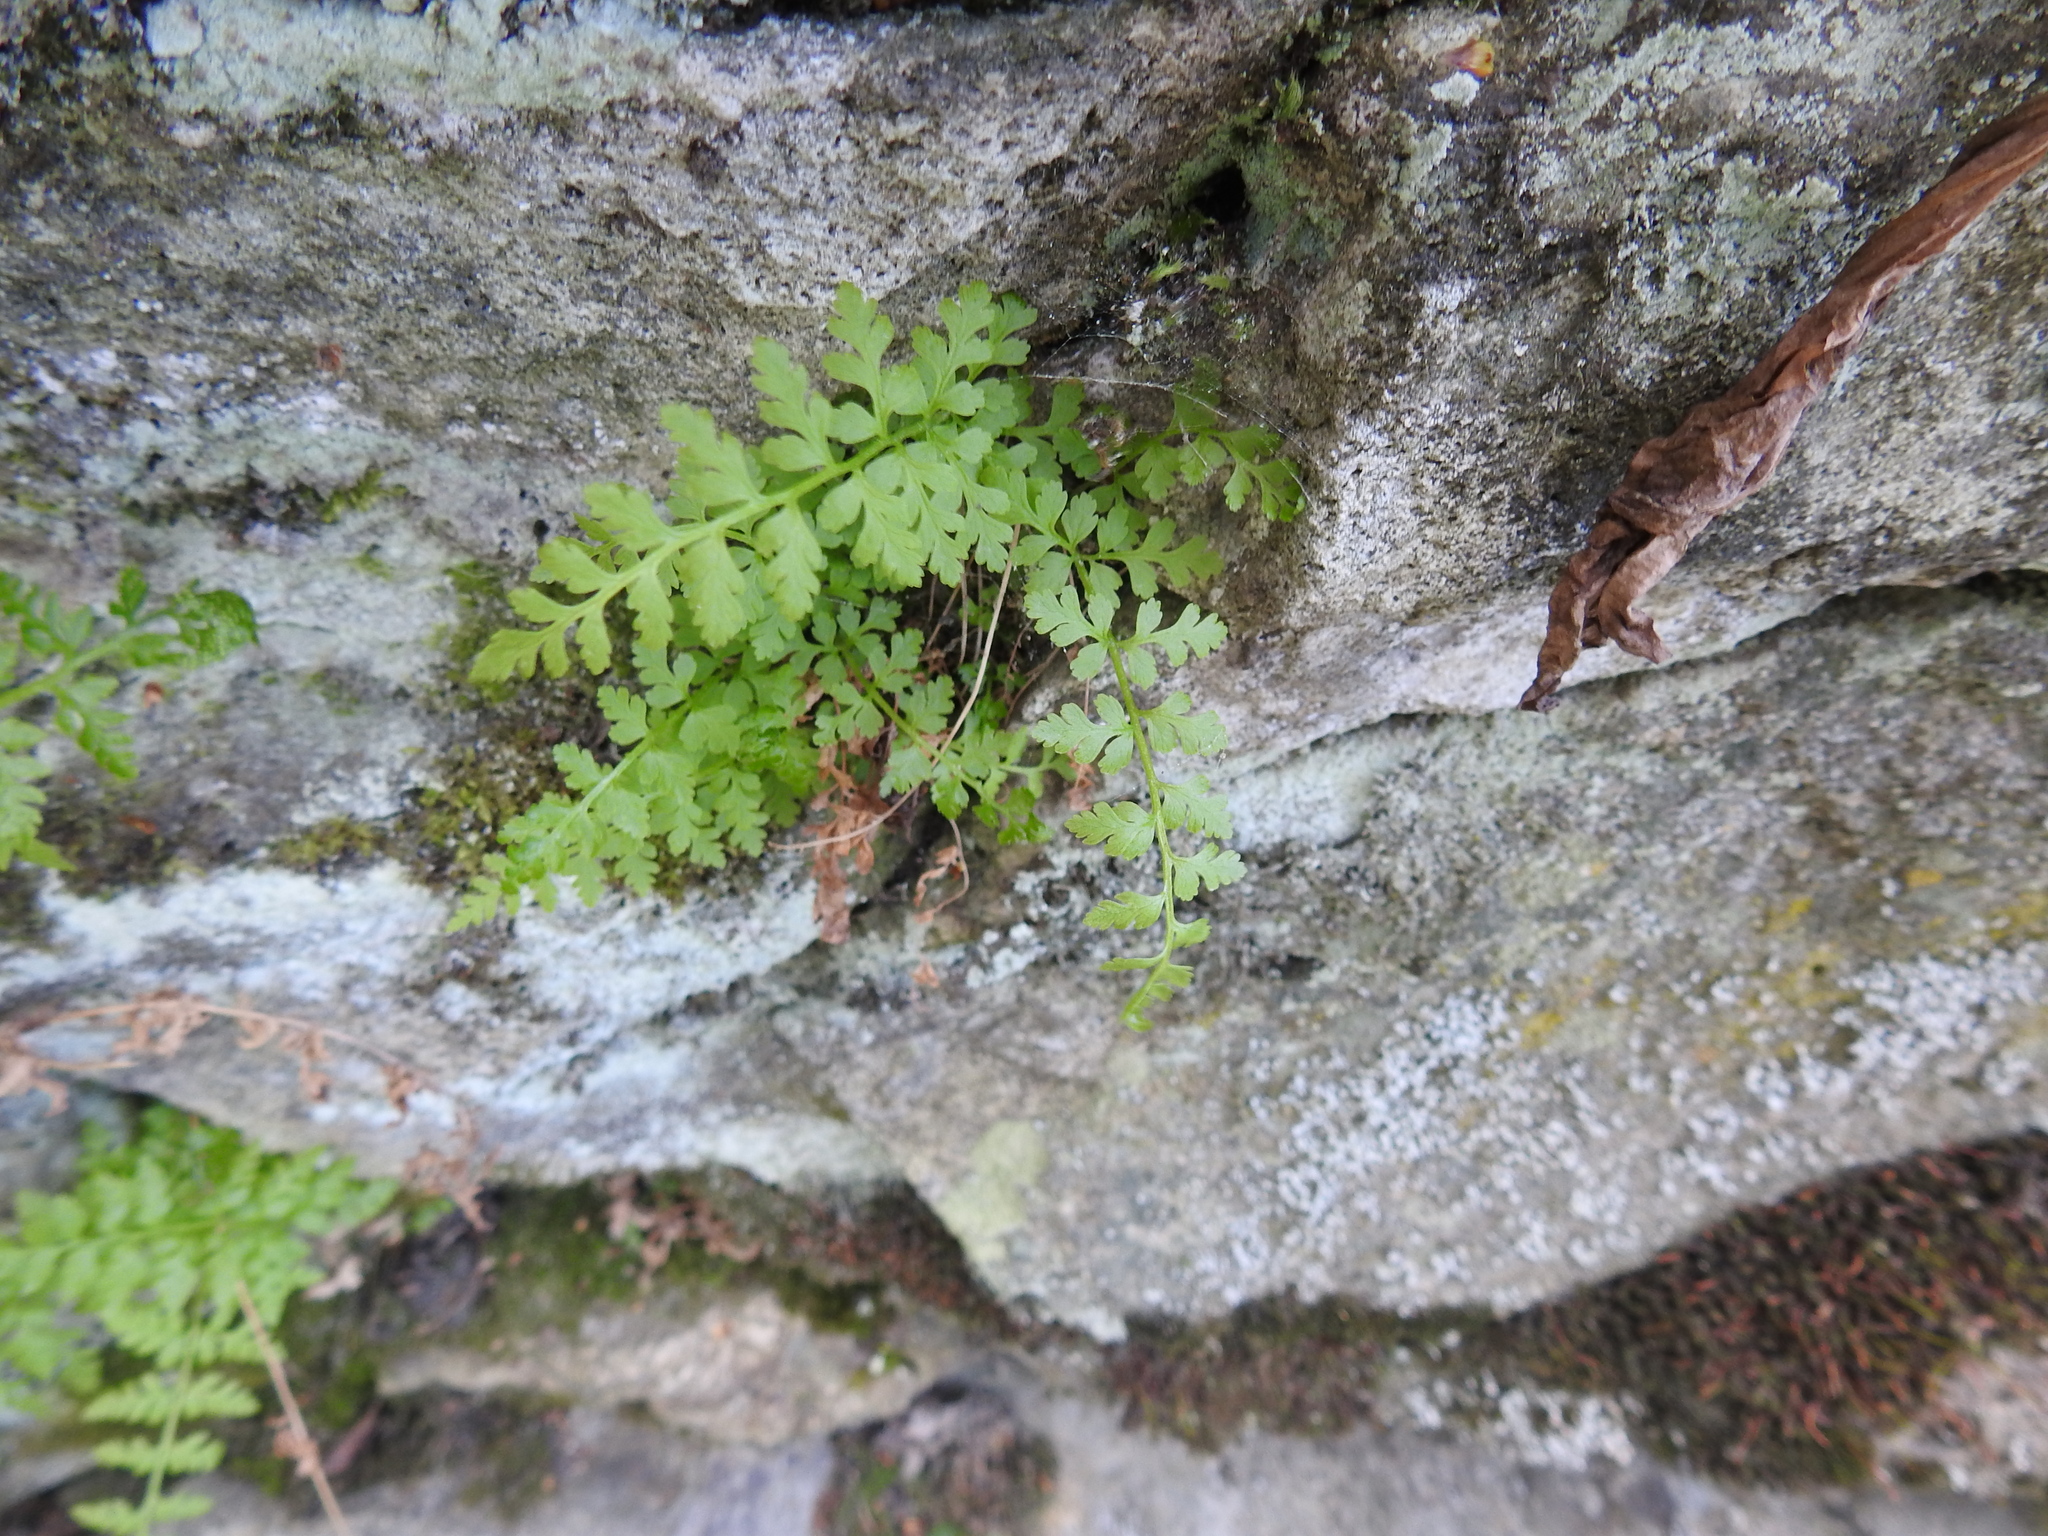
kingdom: Plantae
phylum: Tracheophyta
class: Polypodiopsida
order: Polypodiales
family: Cystopteridaceae
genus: Cystopteris
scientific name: Cystopteris fragilis
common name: Brittle bladder fern
